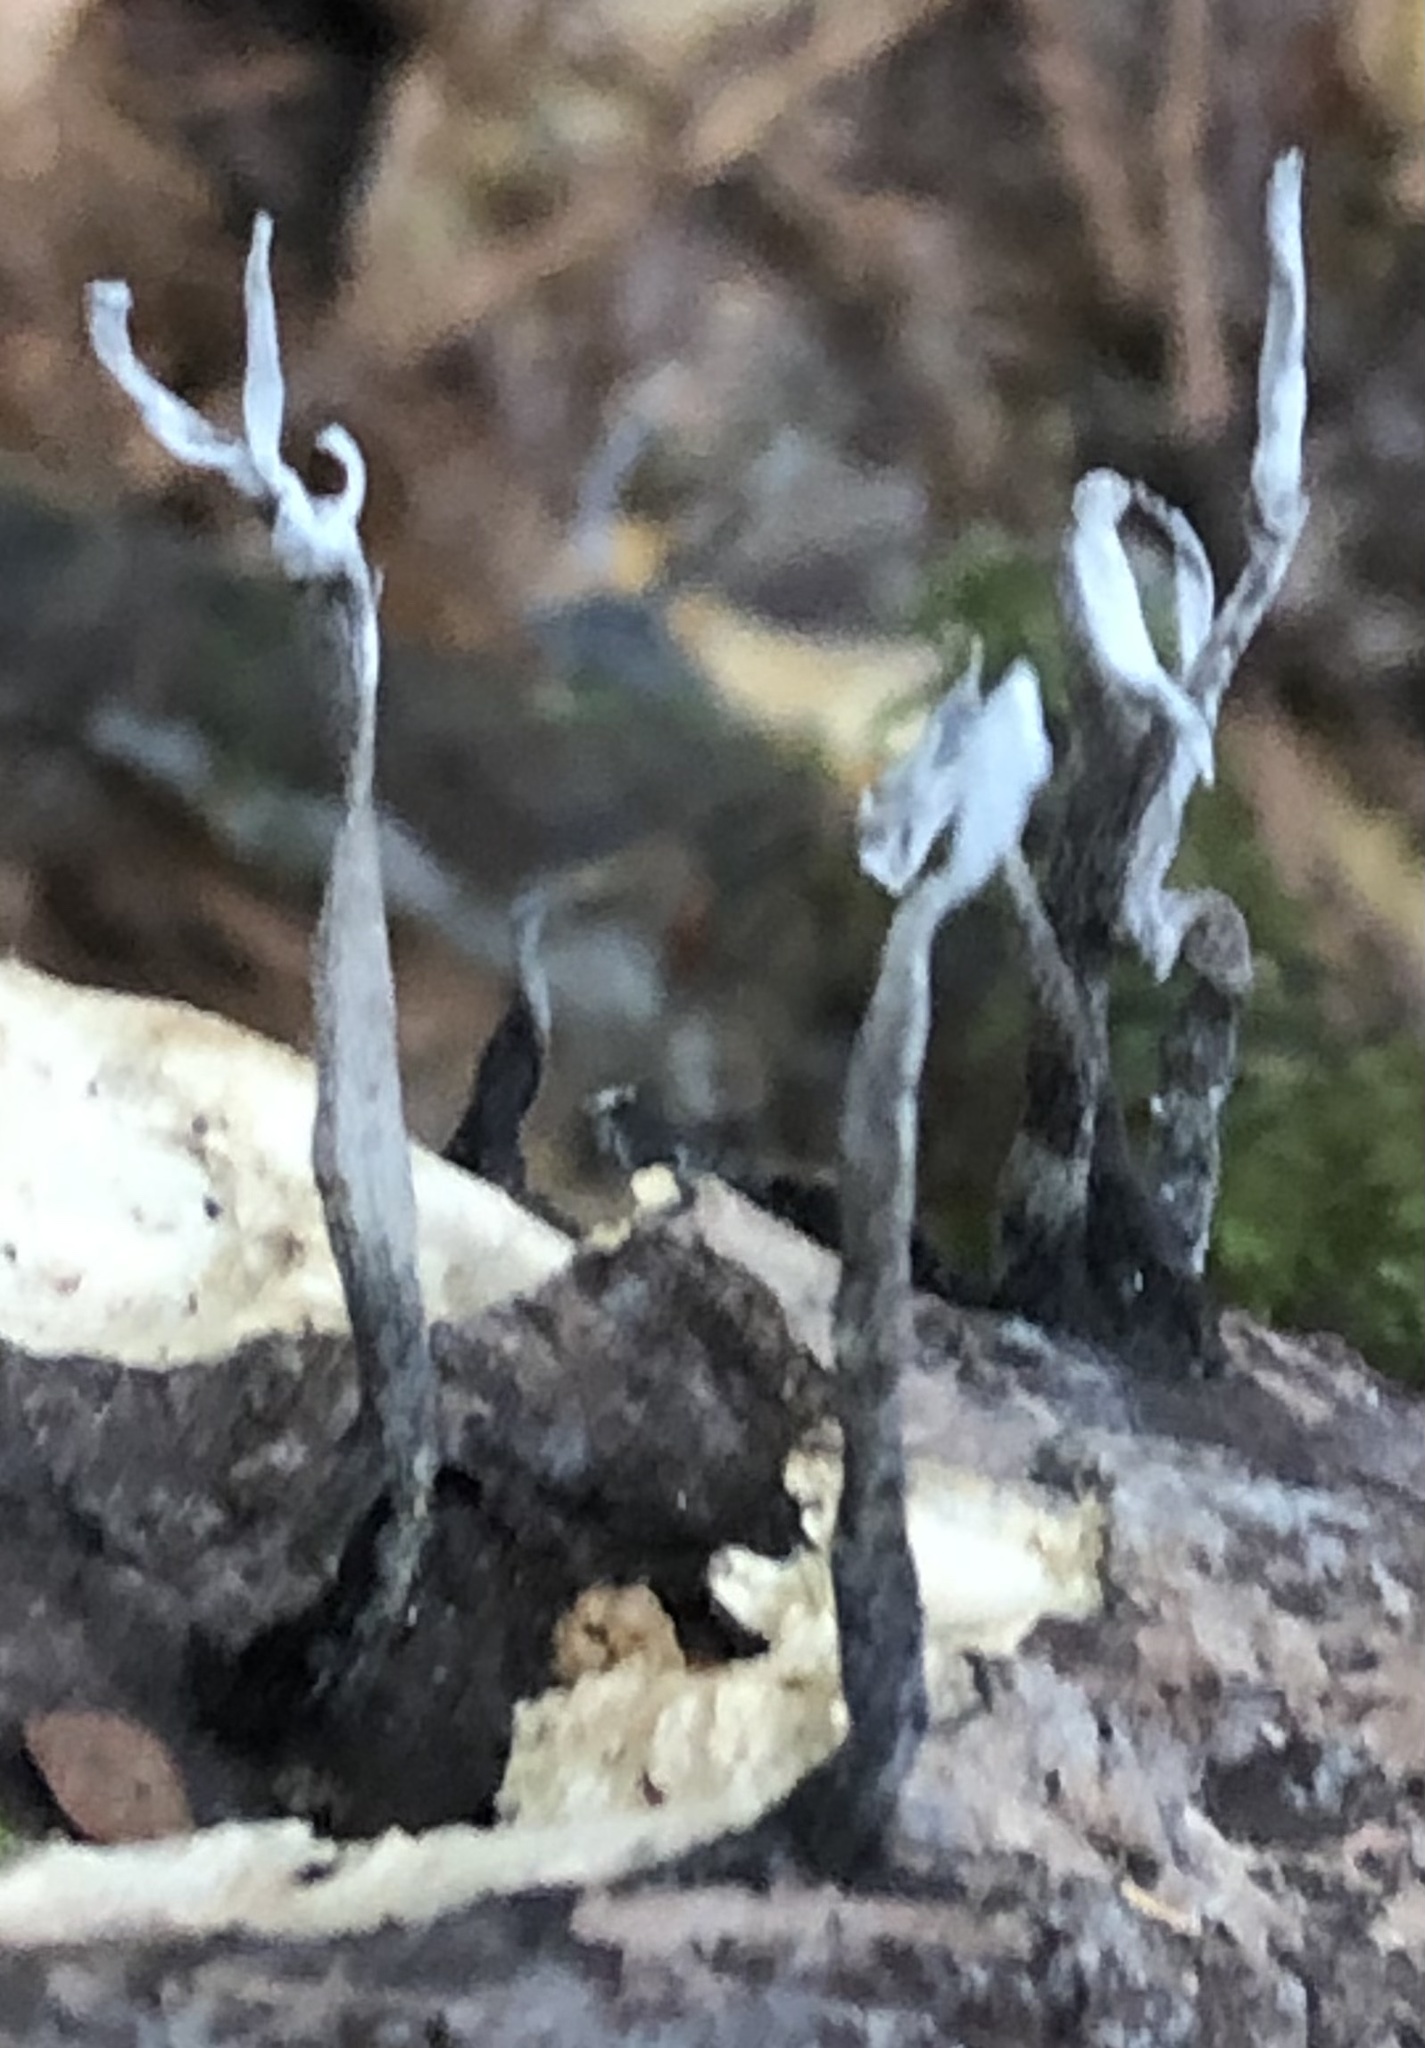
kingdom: Fungi
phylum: Ascomycota
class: Sordariomycetes
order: Xylariales
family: Xylariaceae
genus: Xylaria
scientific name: Xylaria hypoxylon
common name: Candle-snuff fungus
